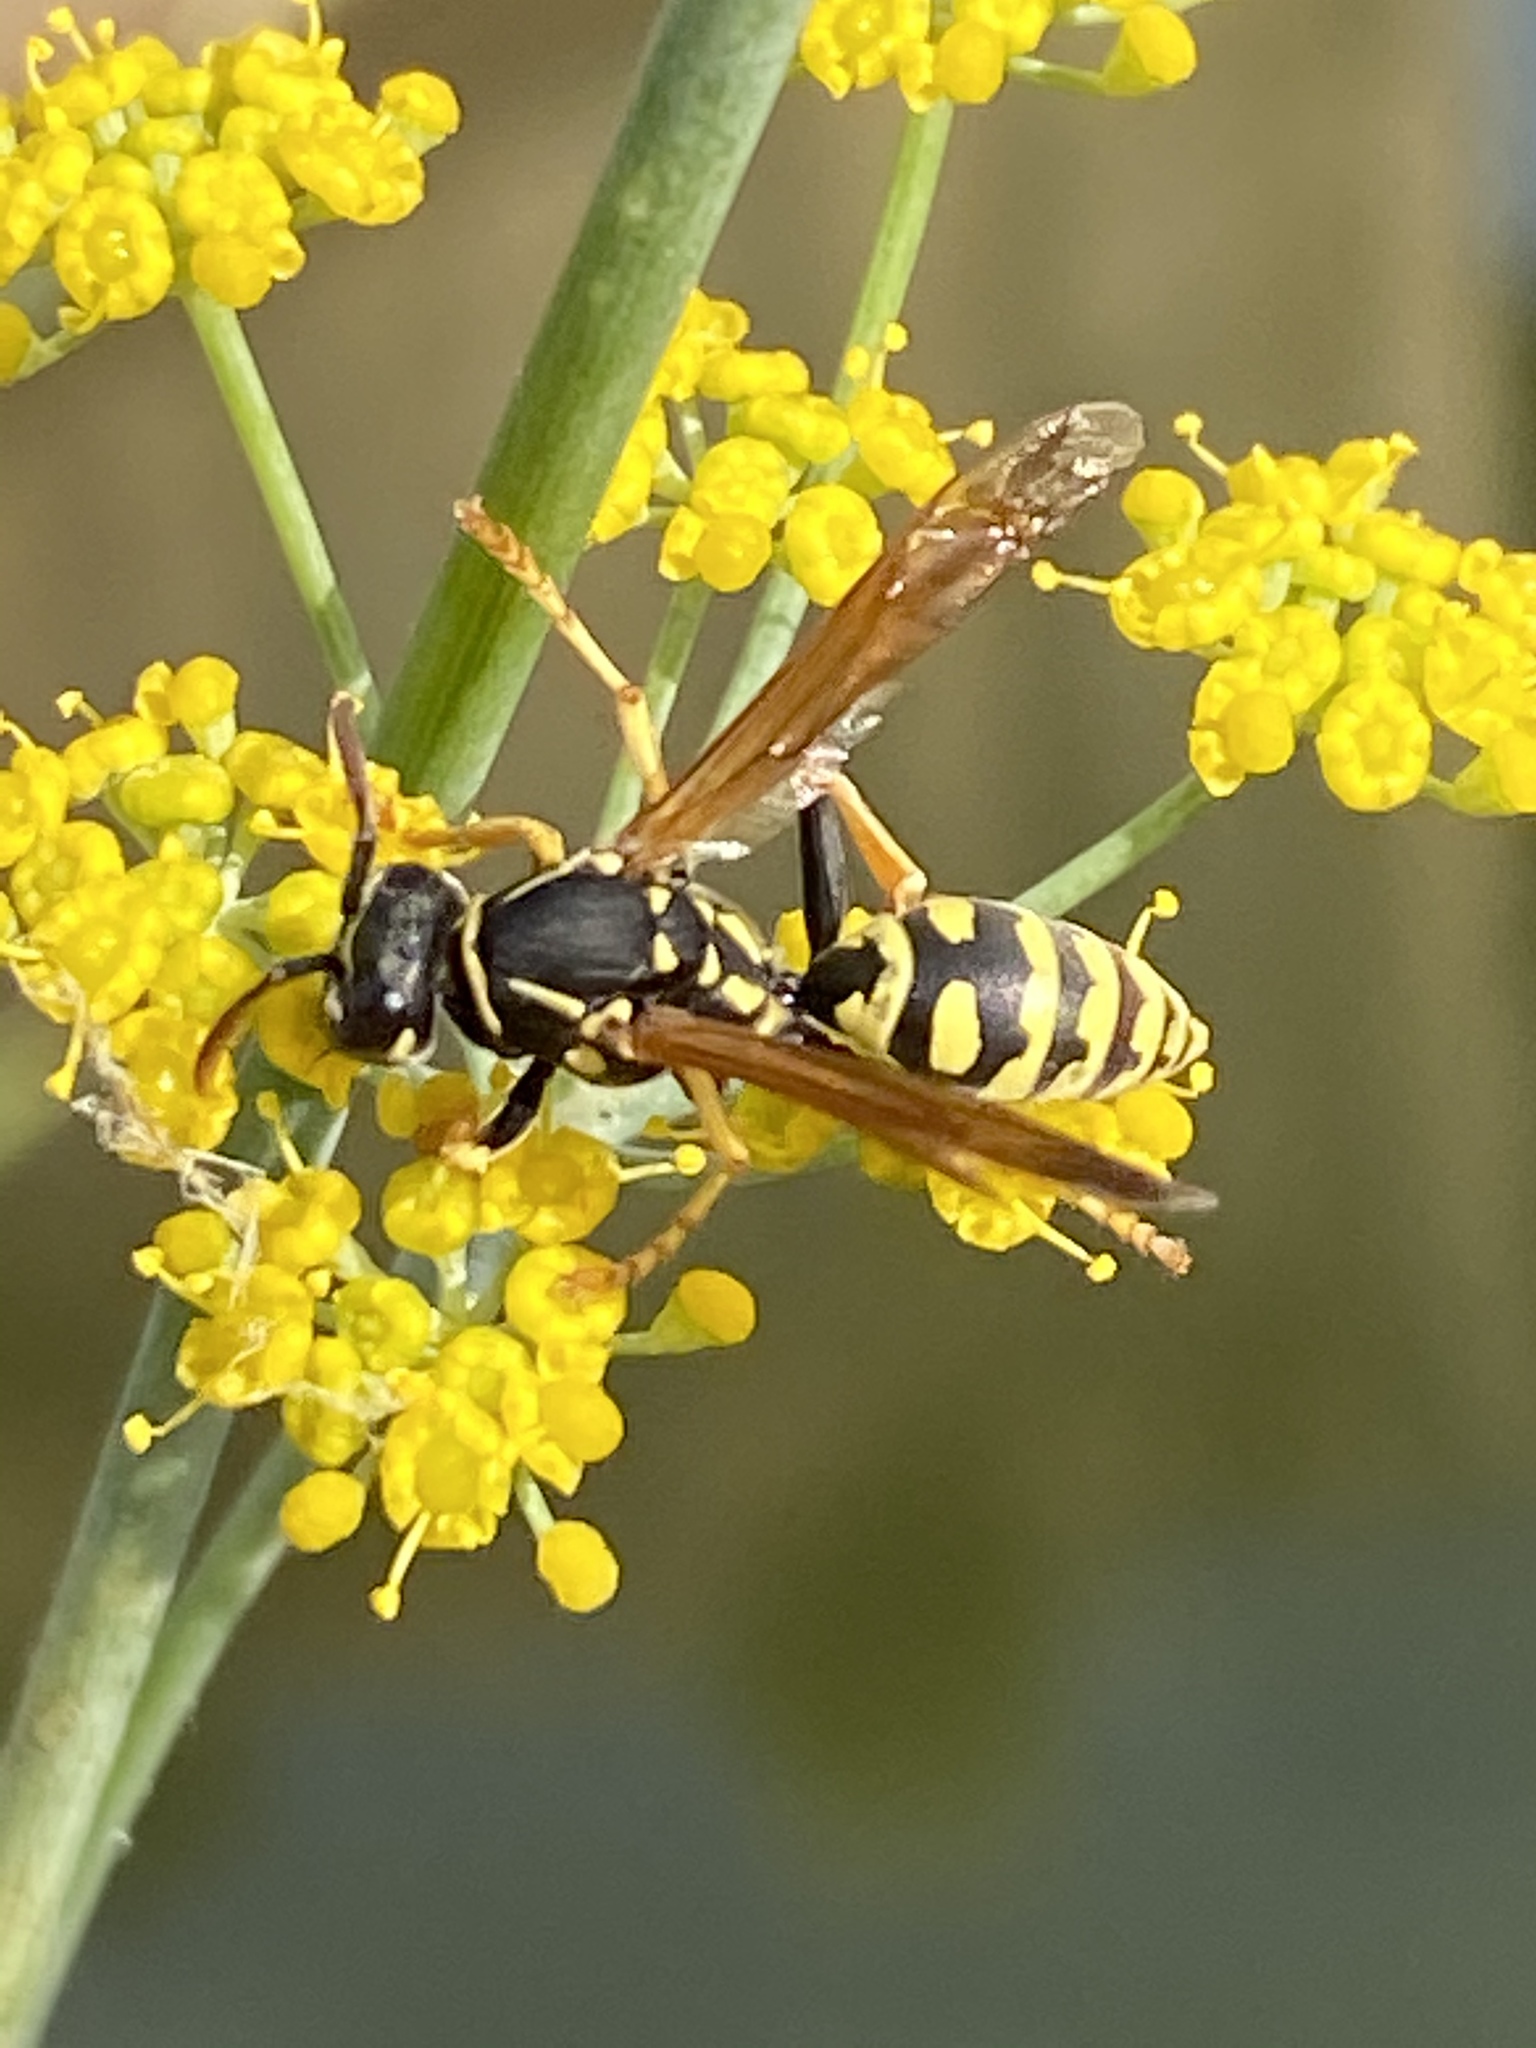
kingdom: Animalia
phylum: Arthropoda
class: Insecta
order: Hymenoptera
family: Eumenidae
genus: Polistes
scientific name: Polistes dominula
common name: Paper wasp
